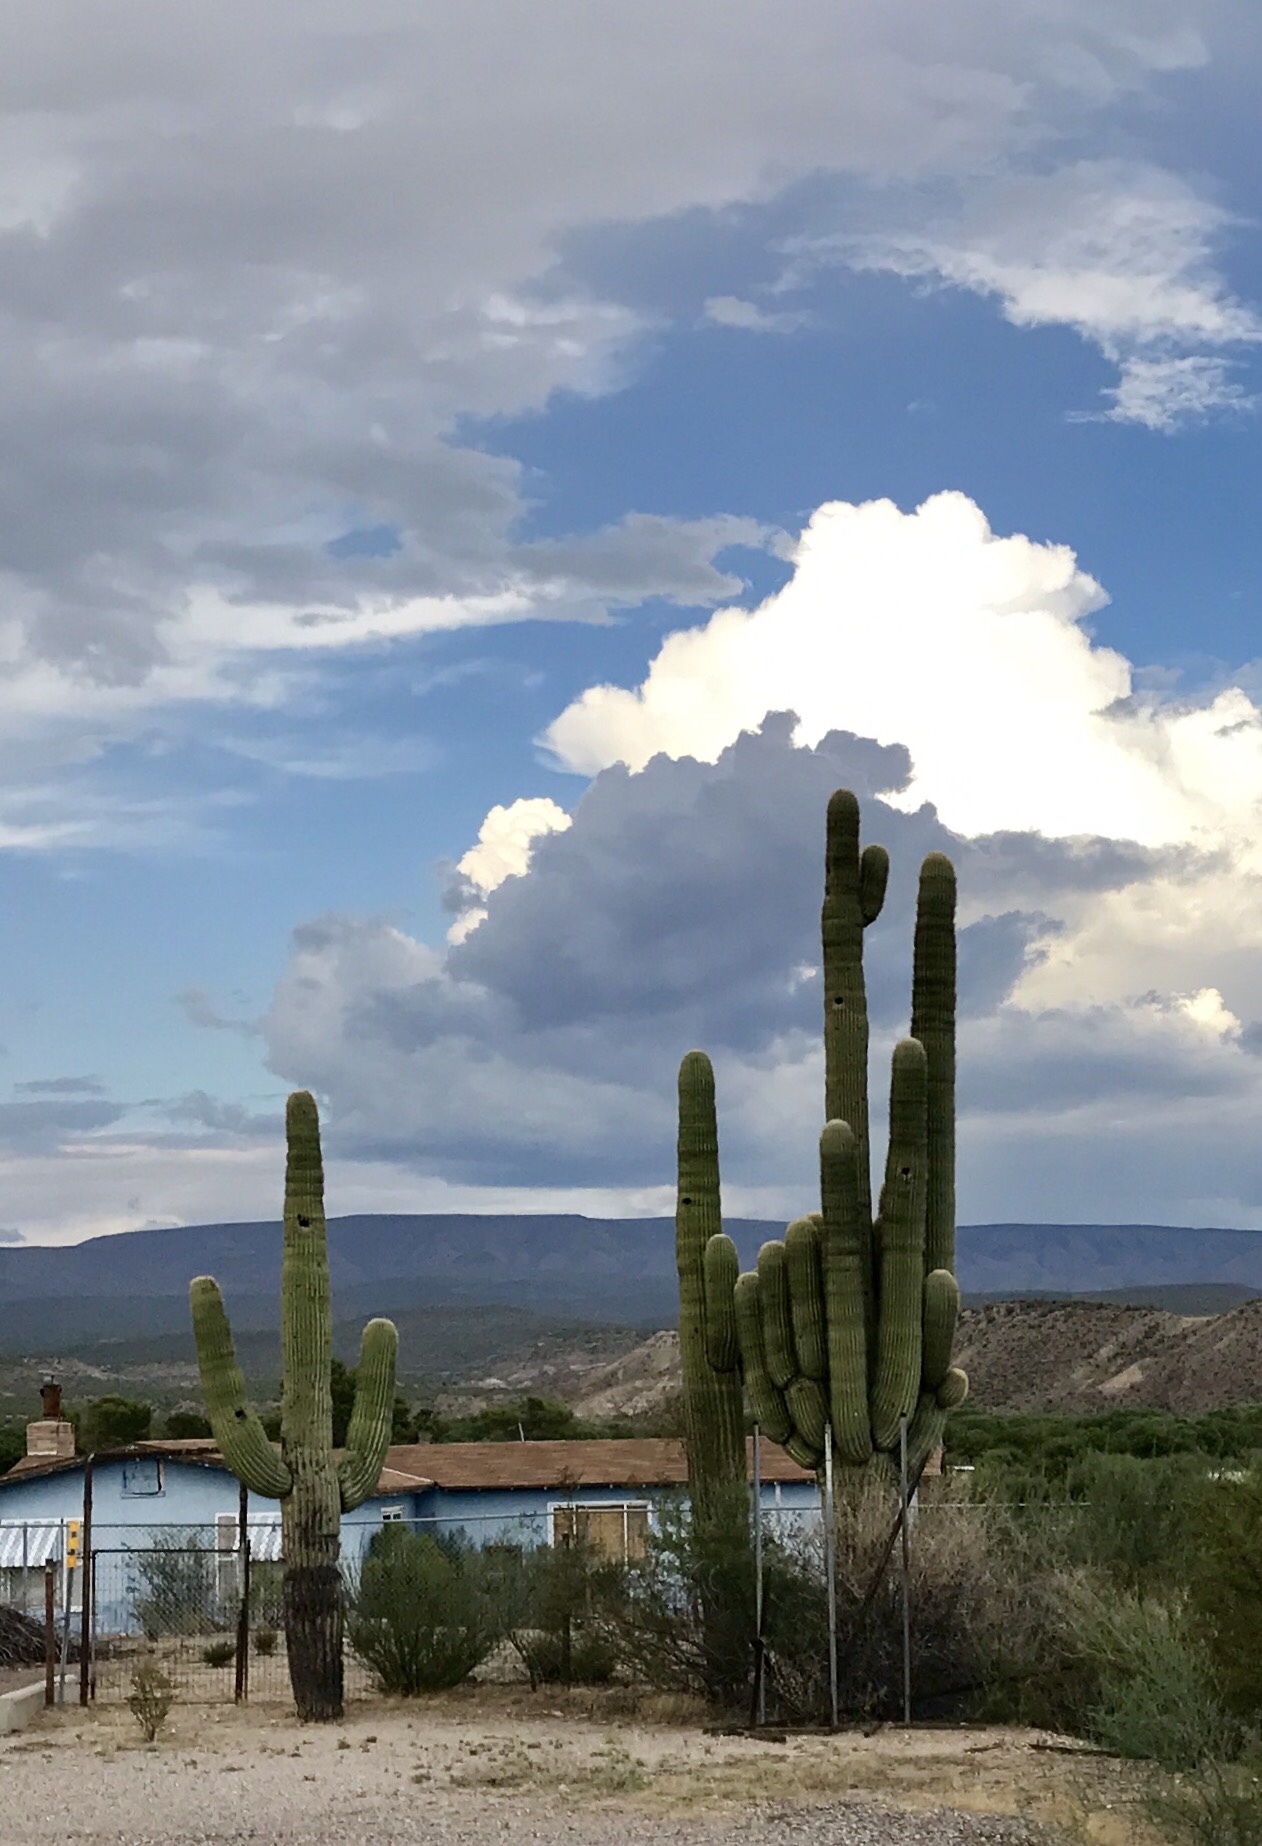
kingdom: Plantae
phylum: Tracheophyta
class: Magnoliopsida
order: Caryophyllales
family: Cactaceae
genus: Carnegiea
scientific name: Carnegiea gigantea
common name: Saguaro
